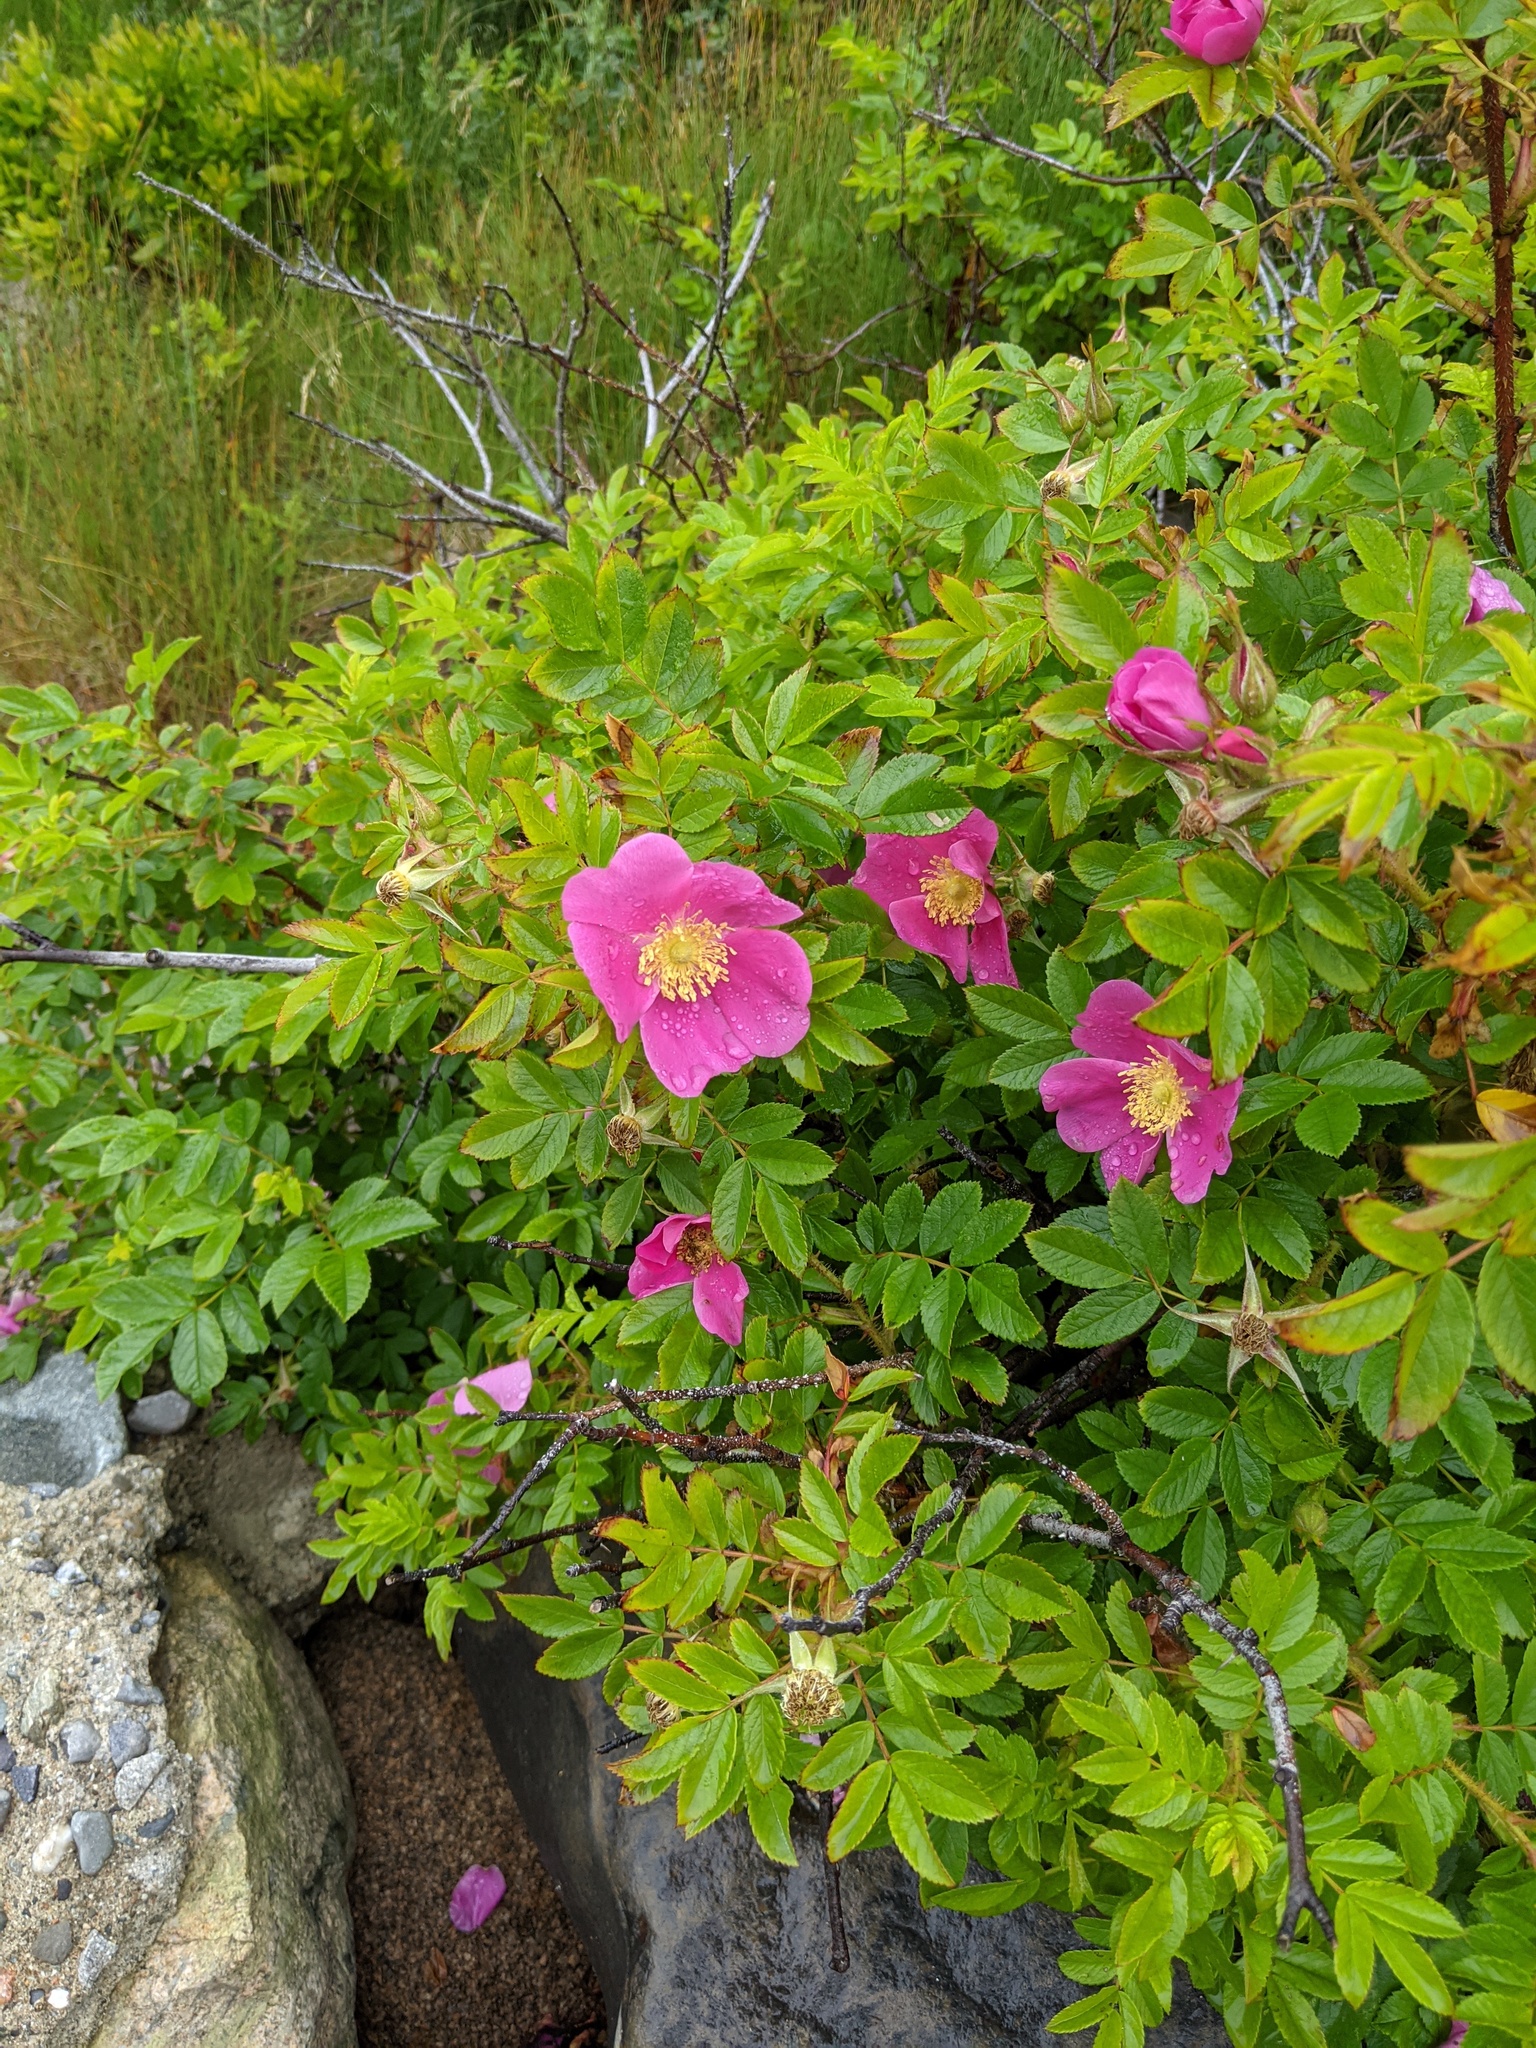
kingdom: Plantae
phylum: Tracheophyta
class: Magnoliopsida
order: Rosales
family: Rosaceae
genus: Rosa
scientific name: Rosa rugosa
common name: Japanese rose
